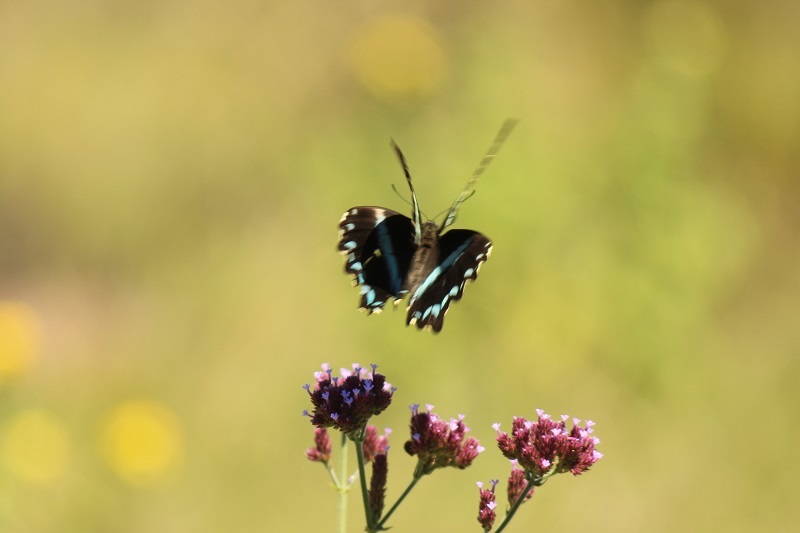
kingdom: Animalia
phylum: Arthropoda
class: Insecta
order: Lepidoptera
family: Papilionidae
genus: Papilio
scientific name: Papilio nireus
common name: Greenbanded swallowtail
